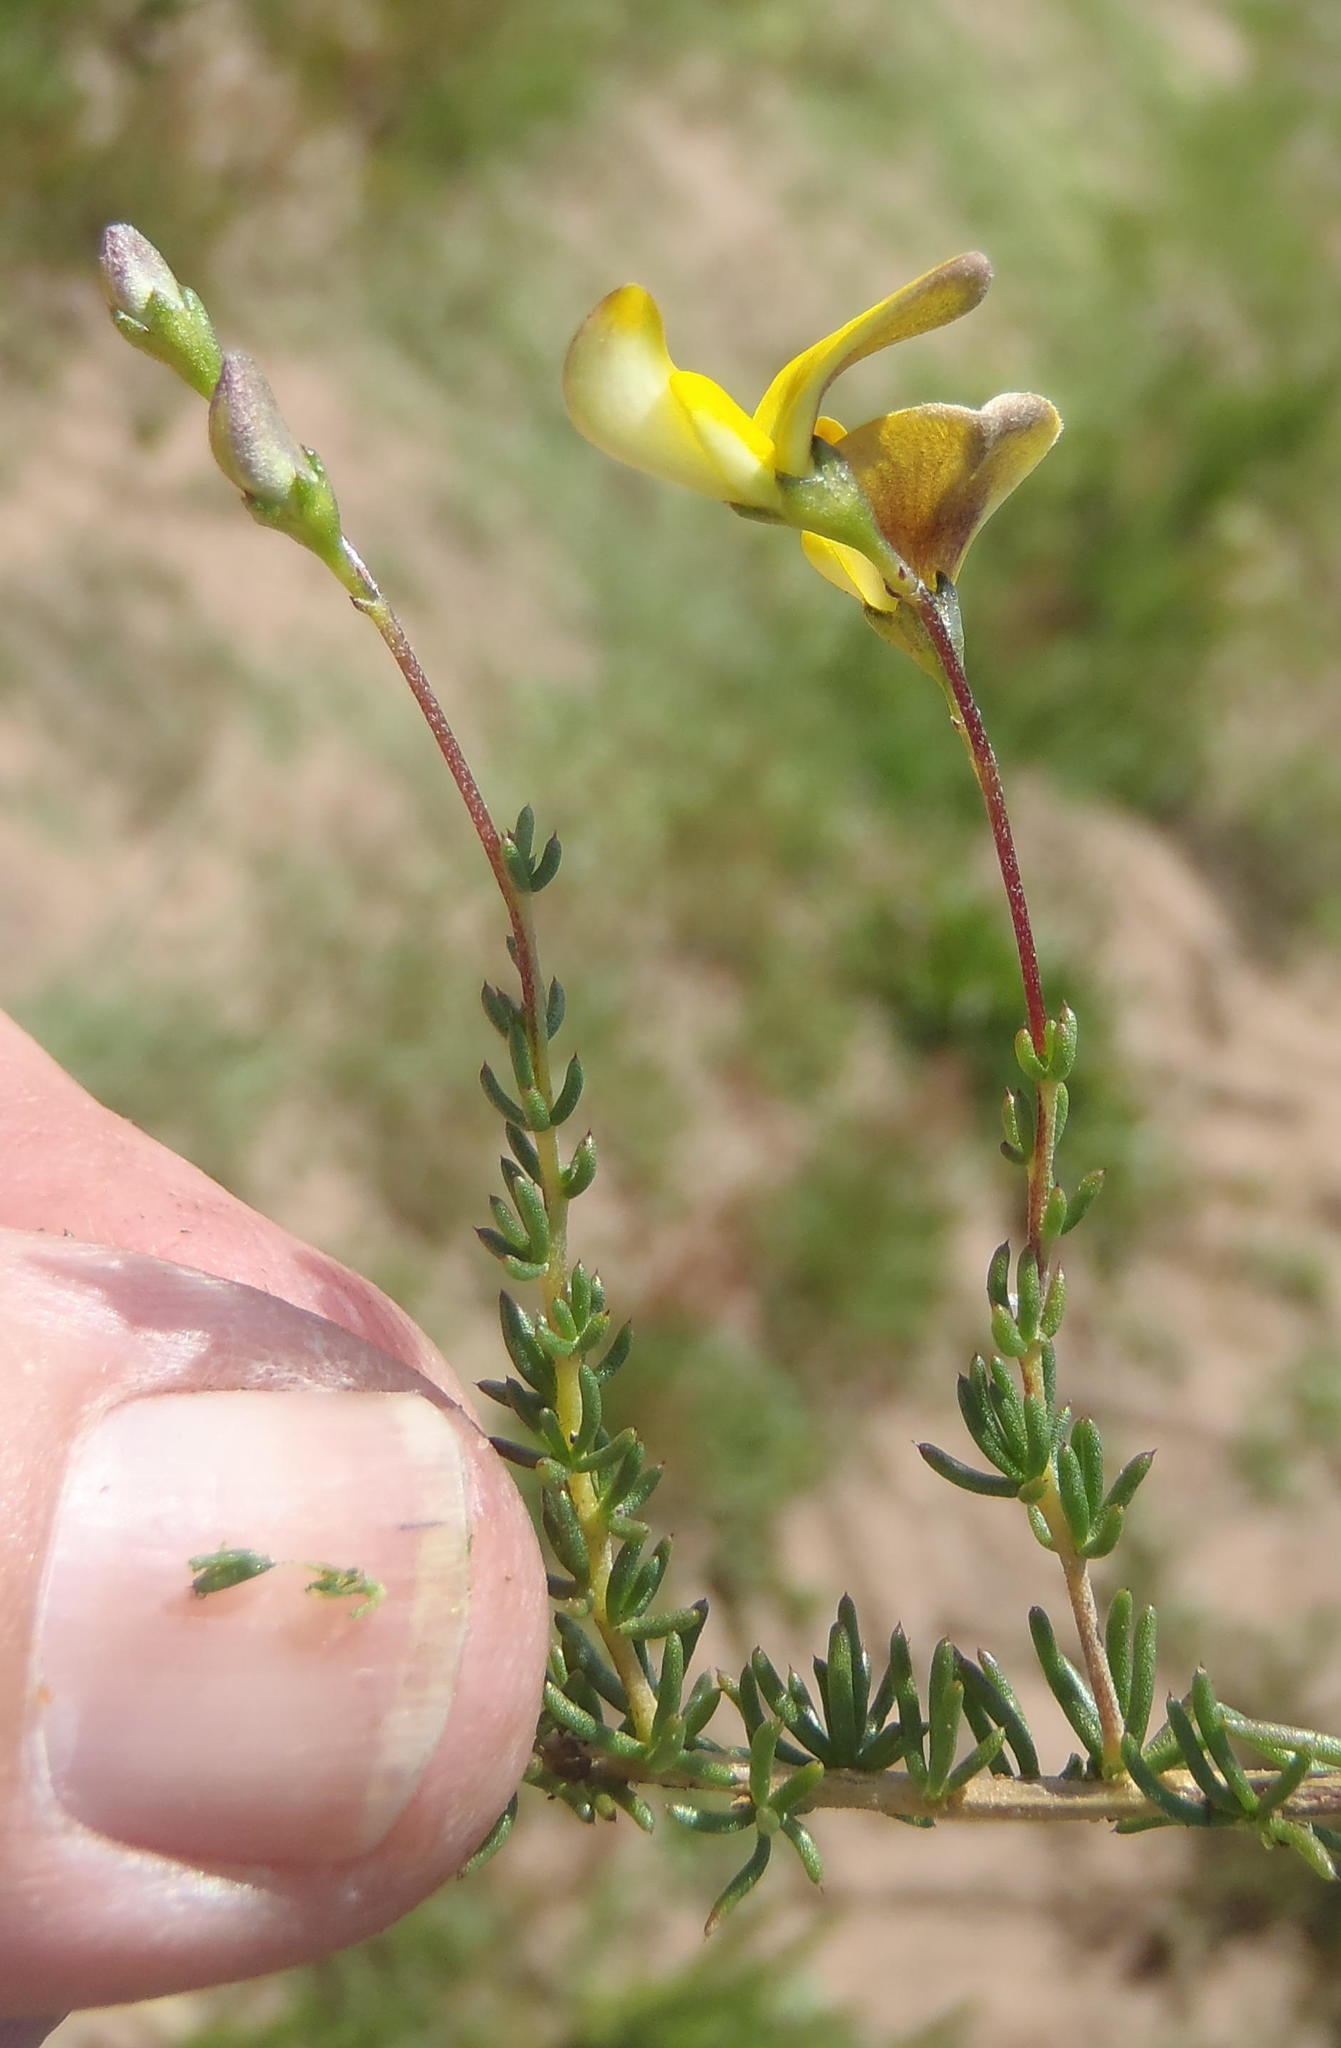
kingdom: Plantae
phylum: Tracheophyta
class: Magnoliopsida
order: Fabales
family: Fabaceae
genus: Aspalathus
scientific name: Aspalathus biflora
